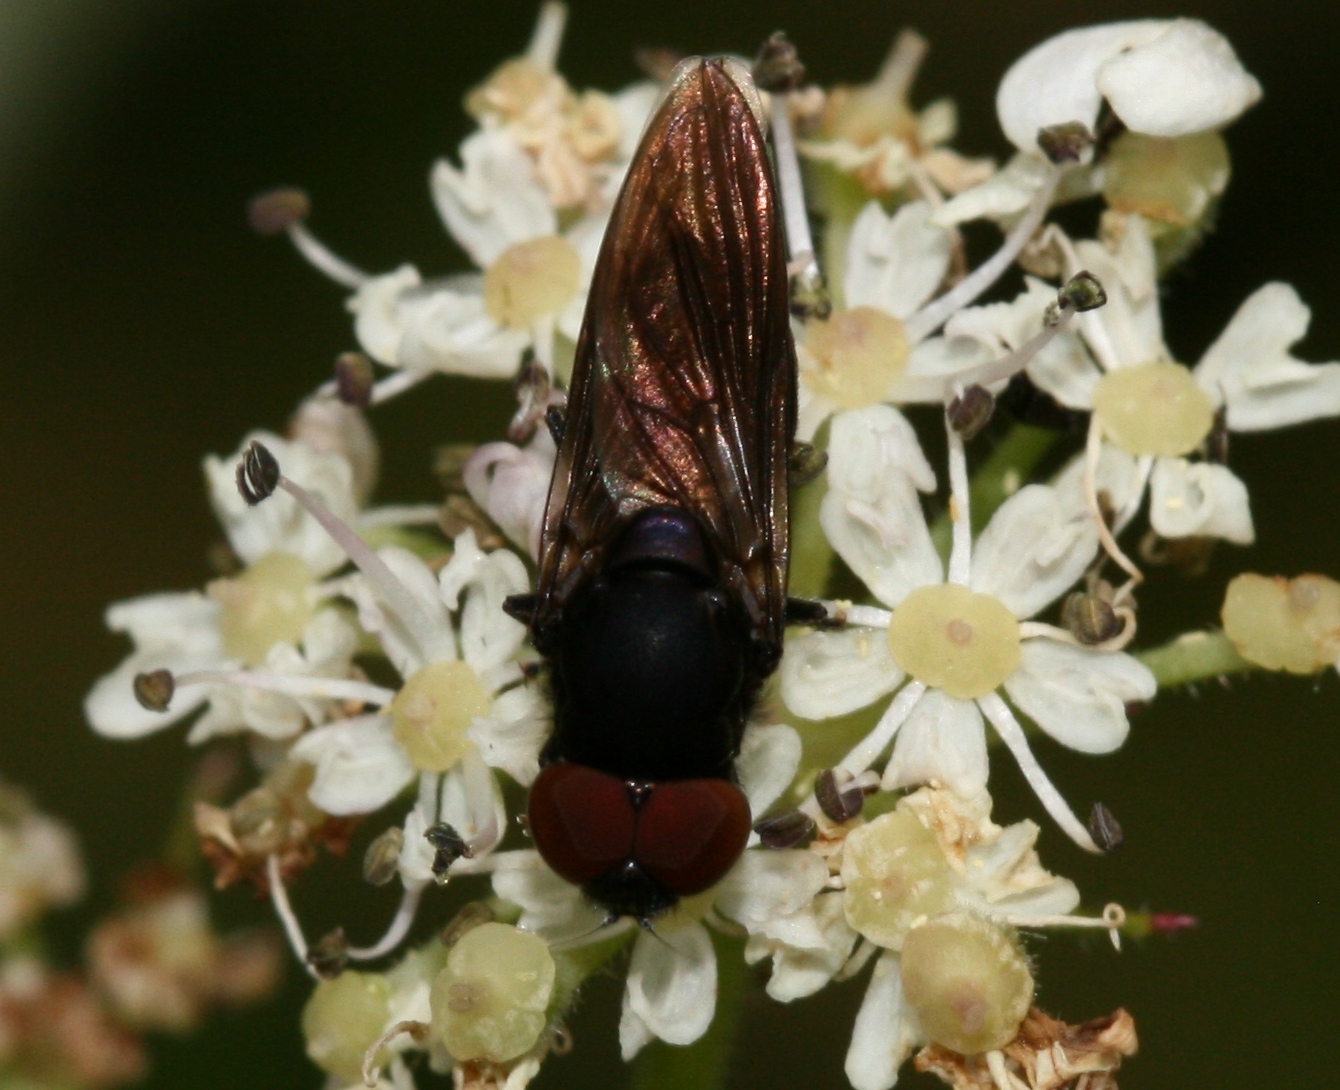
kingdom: Animalia
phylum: Arthropoda
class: Insecta
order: Diptera
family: Syrphidae
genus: Chrysogaster
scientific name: Chrysogaster solstitialis
